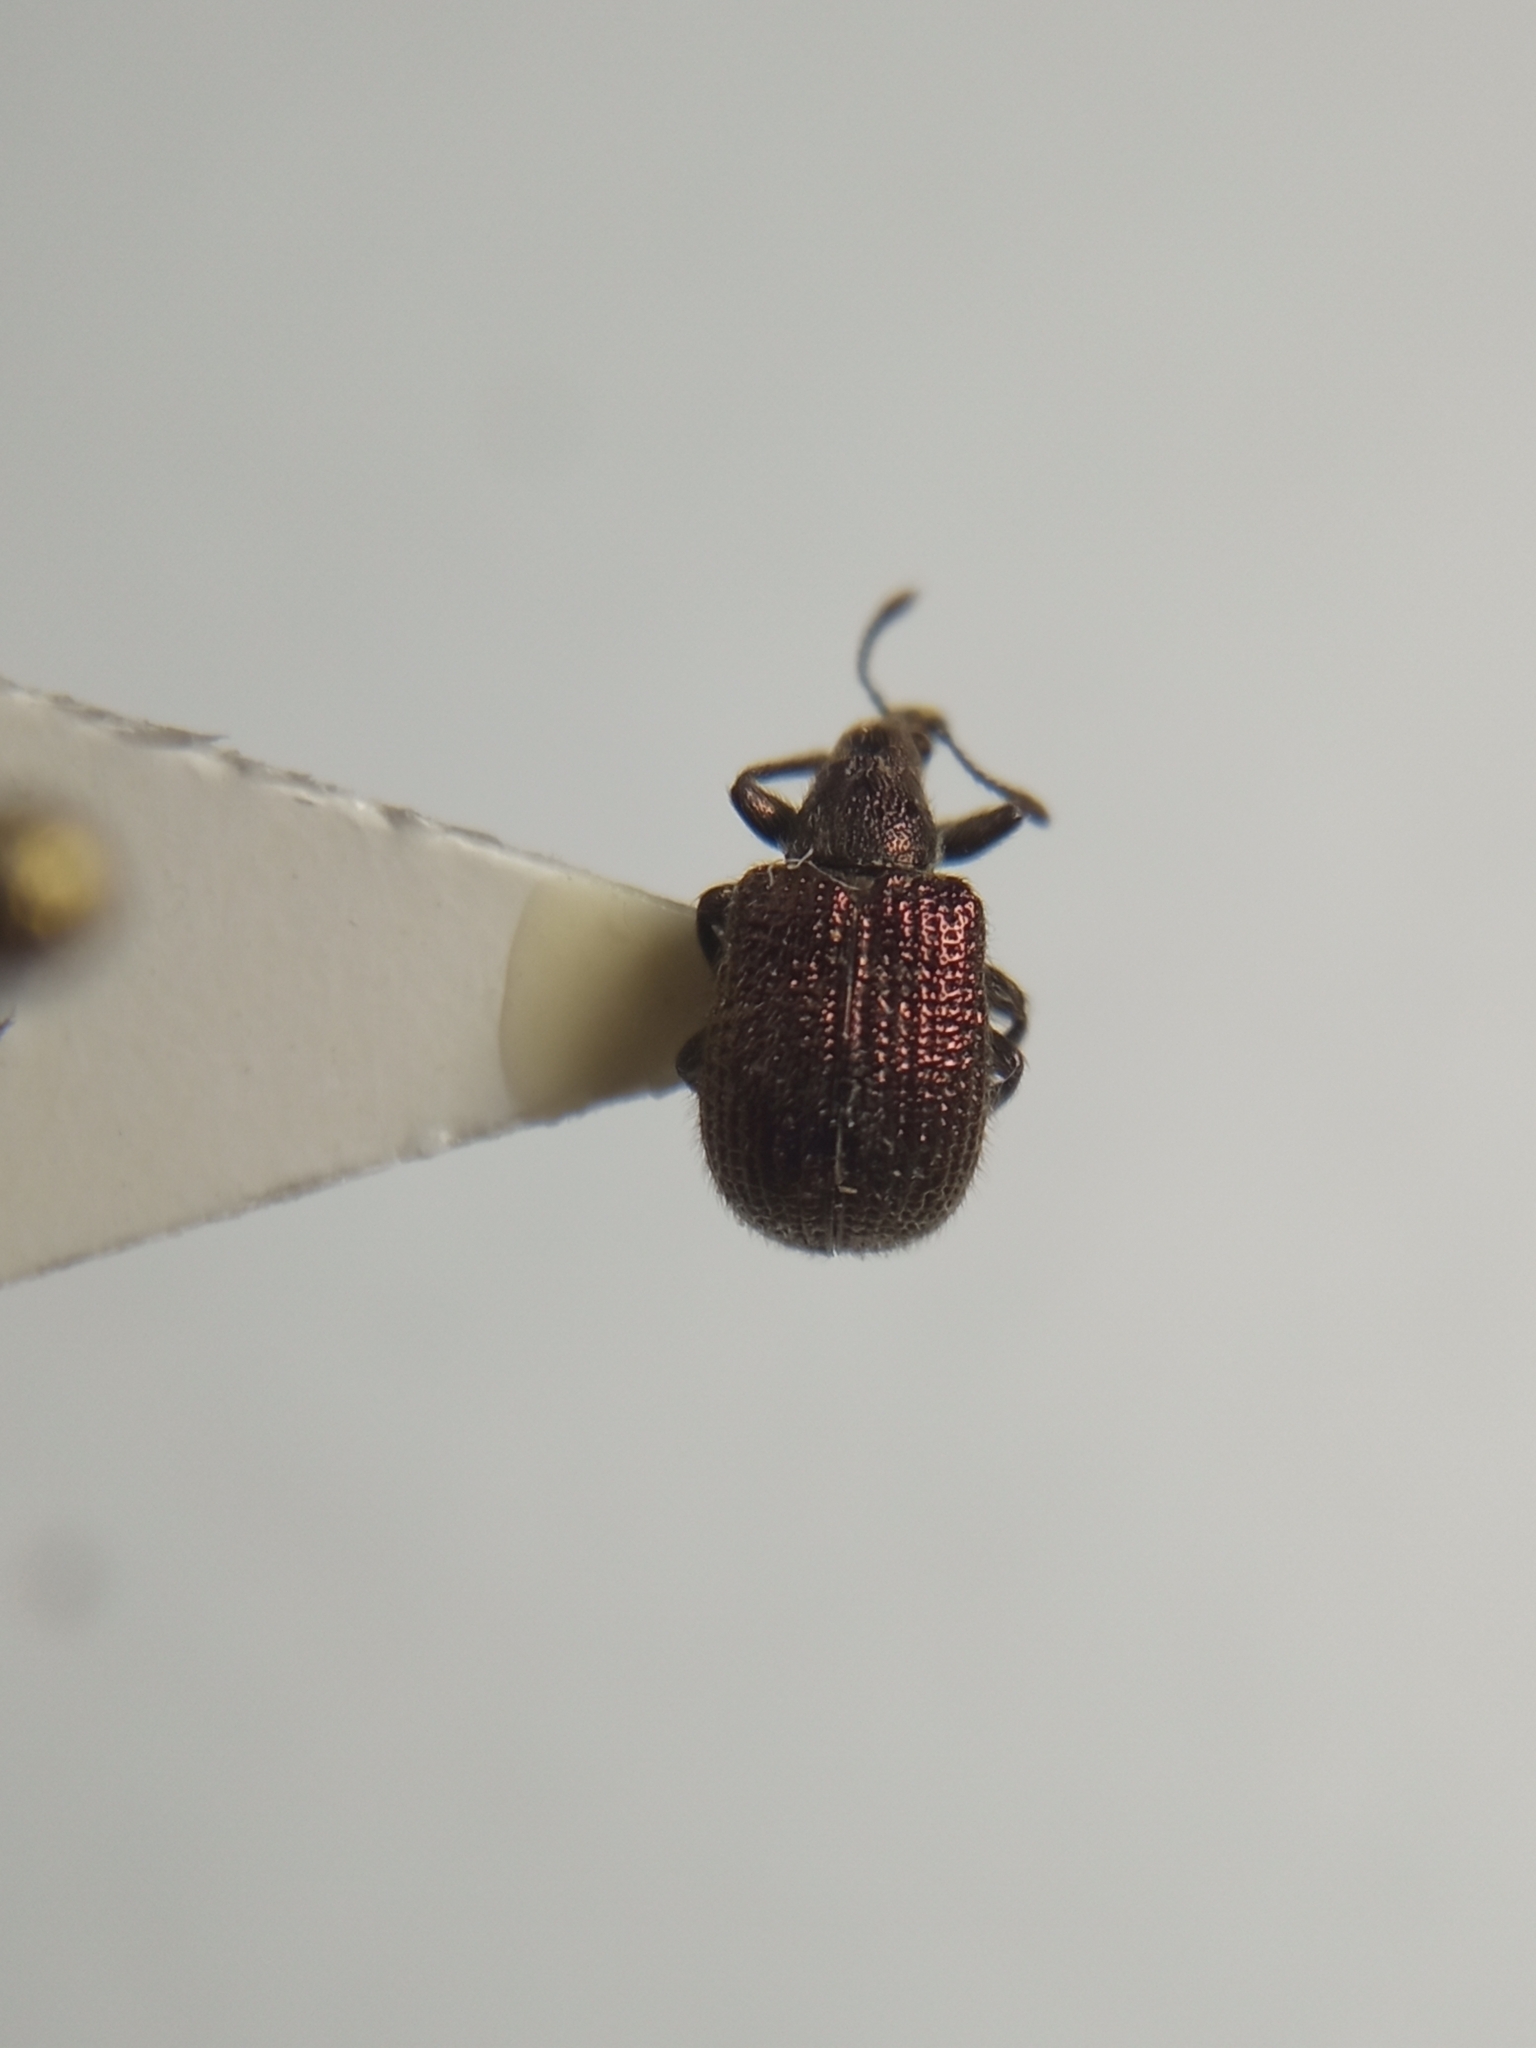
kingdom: Animalia
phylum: Arthropoda
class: Insecta
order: Coleoptera
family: Attelabidae
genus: Involvulus
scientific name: Involvulus cupreus
